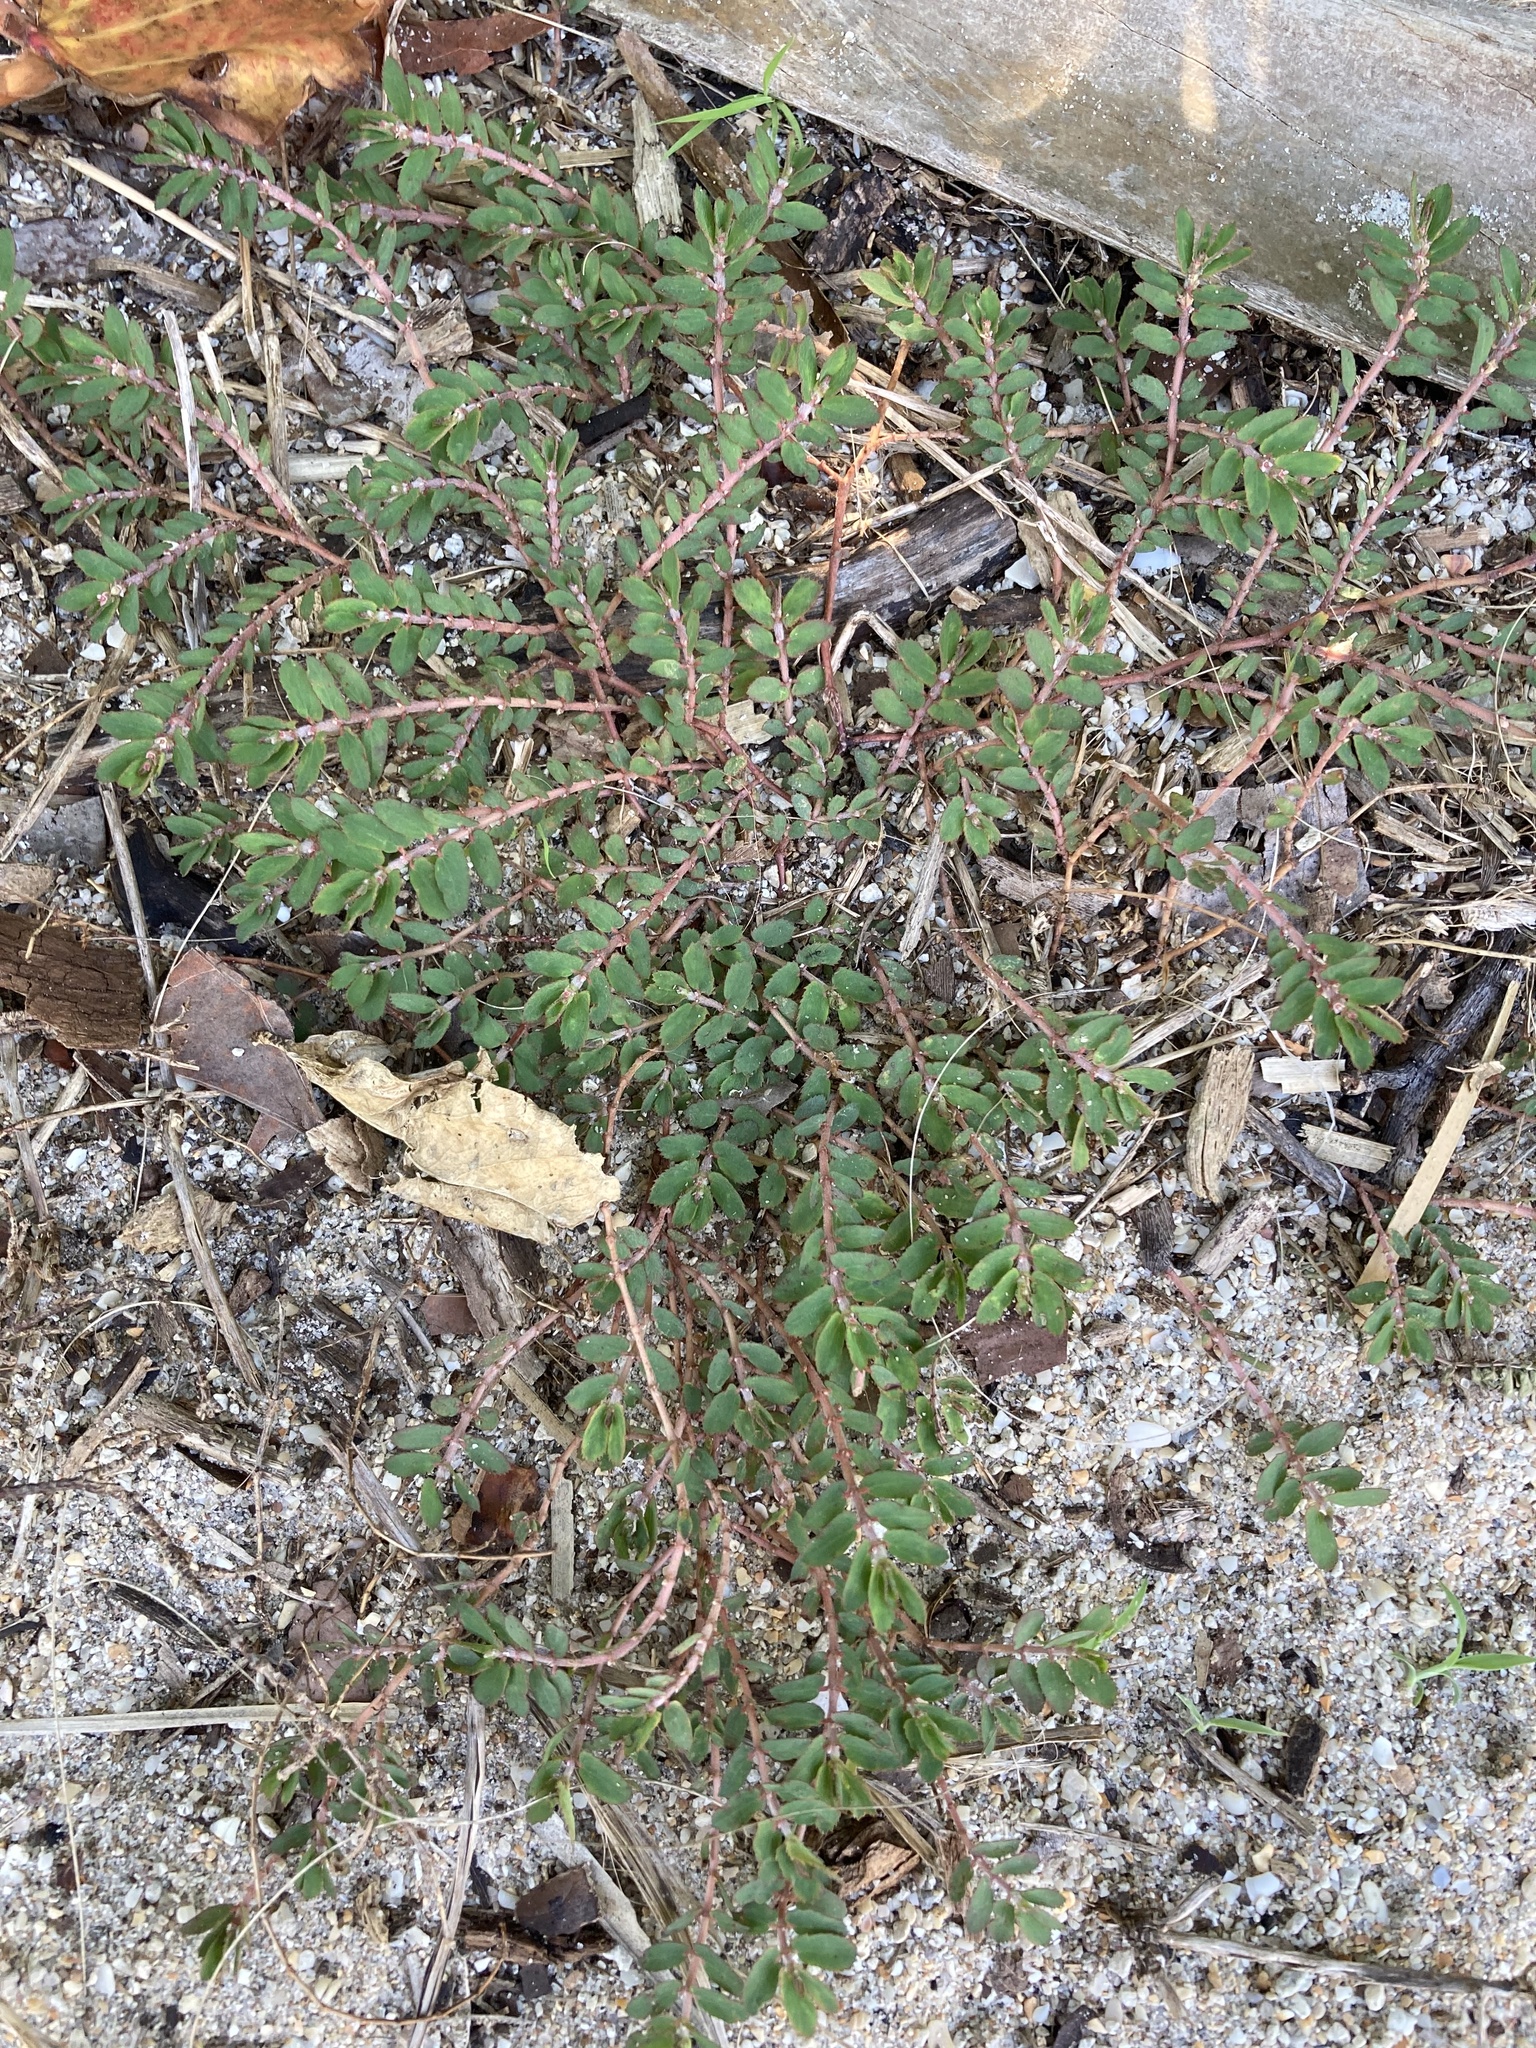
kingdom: Plantae
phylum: Tracheophyta
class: Magnoliopsida
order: Malpighiales
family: Euphorbiaceae
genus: Euphorbia
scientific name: Euphorbia thymifolia
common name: Gulf sandmat
